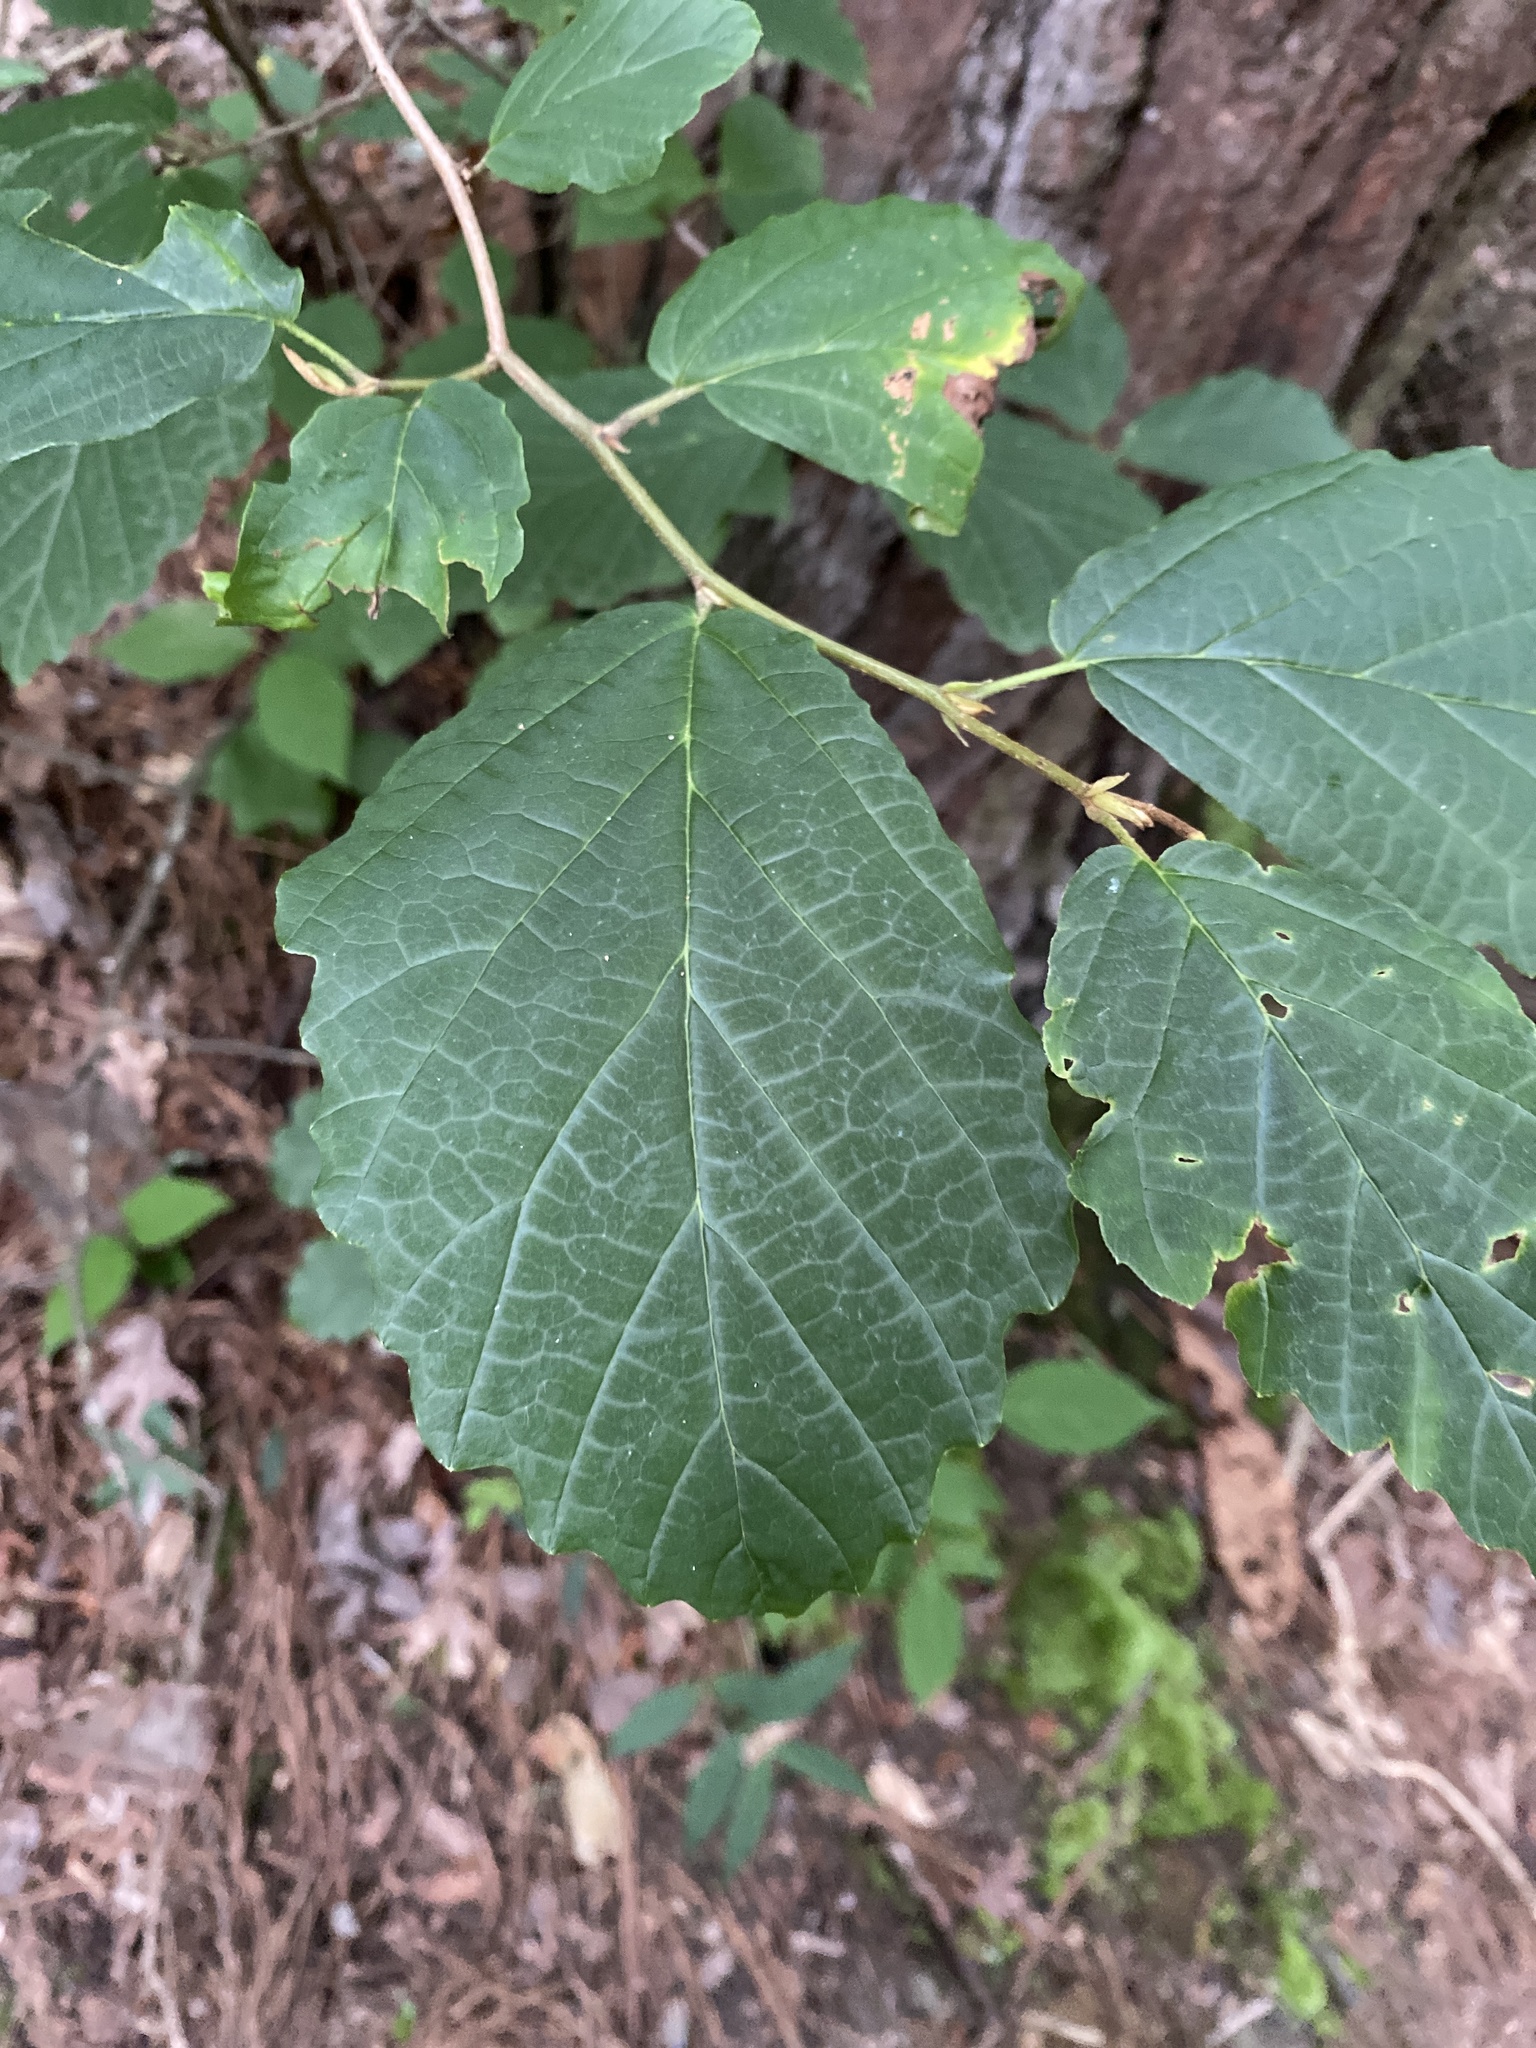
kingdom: Plantae
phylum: Tracheophyta
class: Magnoliopsida
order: Saxifragales
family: Hamamelidaceae
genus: Hamamelis
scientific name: Hamamelis virginiana
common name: Witch-hazel
